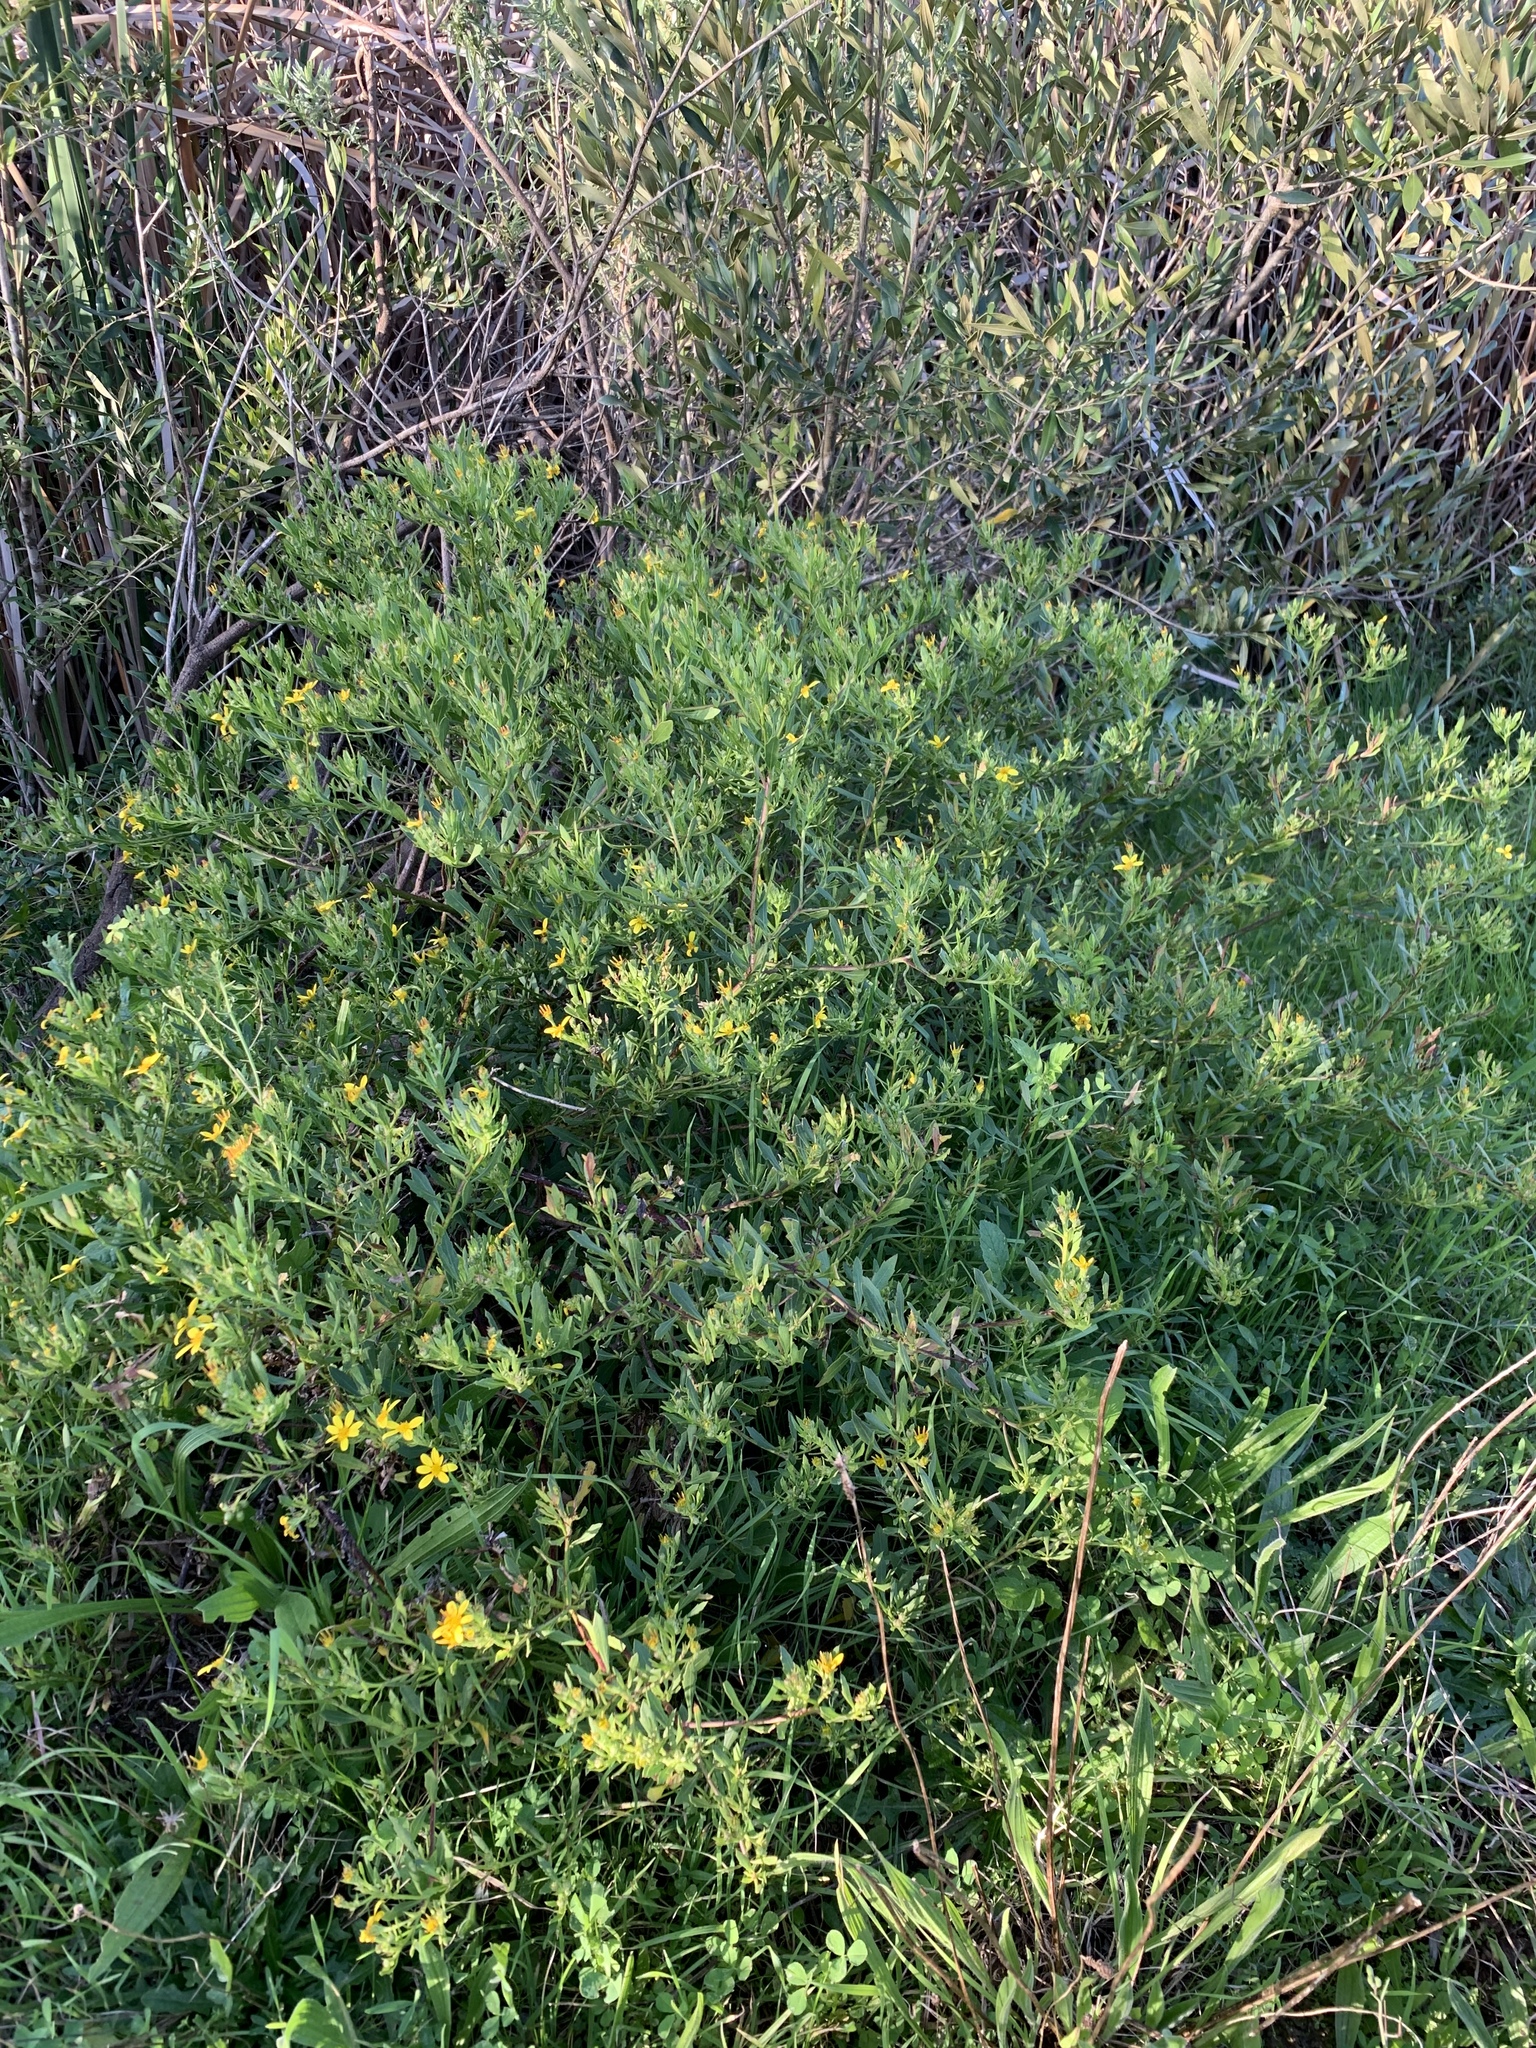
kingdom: Plantae
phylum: Tracheophyta
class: Magnoliopsida
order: Asterales
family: Asteraceae
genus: Osteospermum
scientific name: Osteospermum moniliferum
